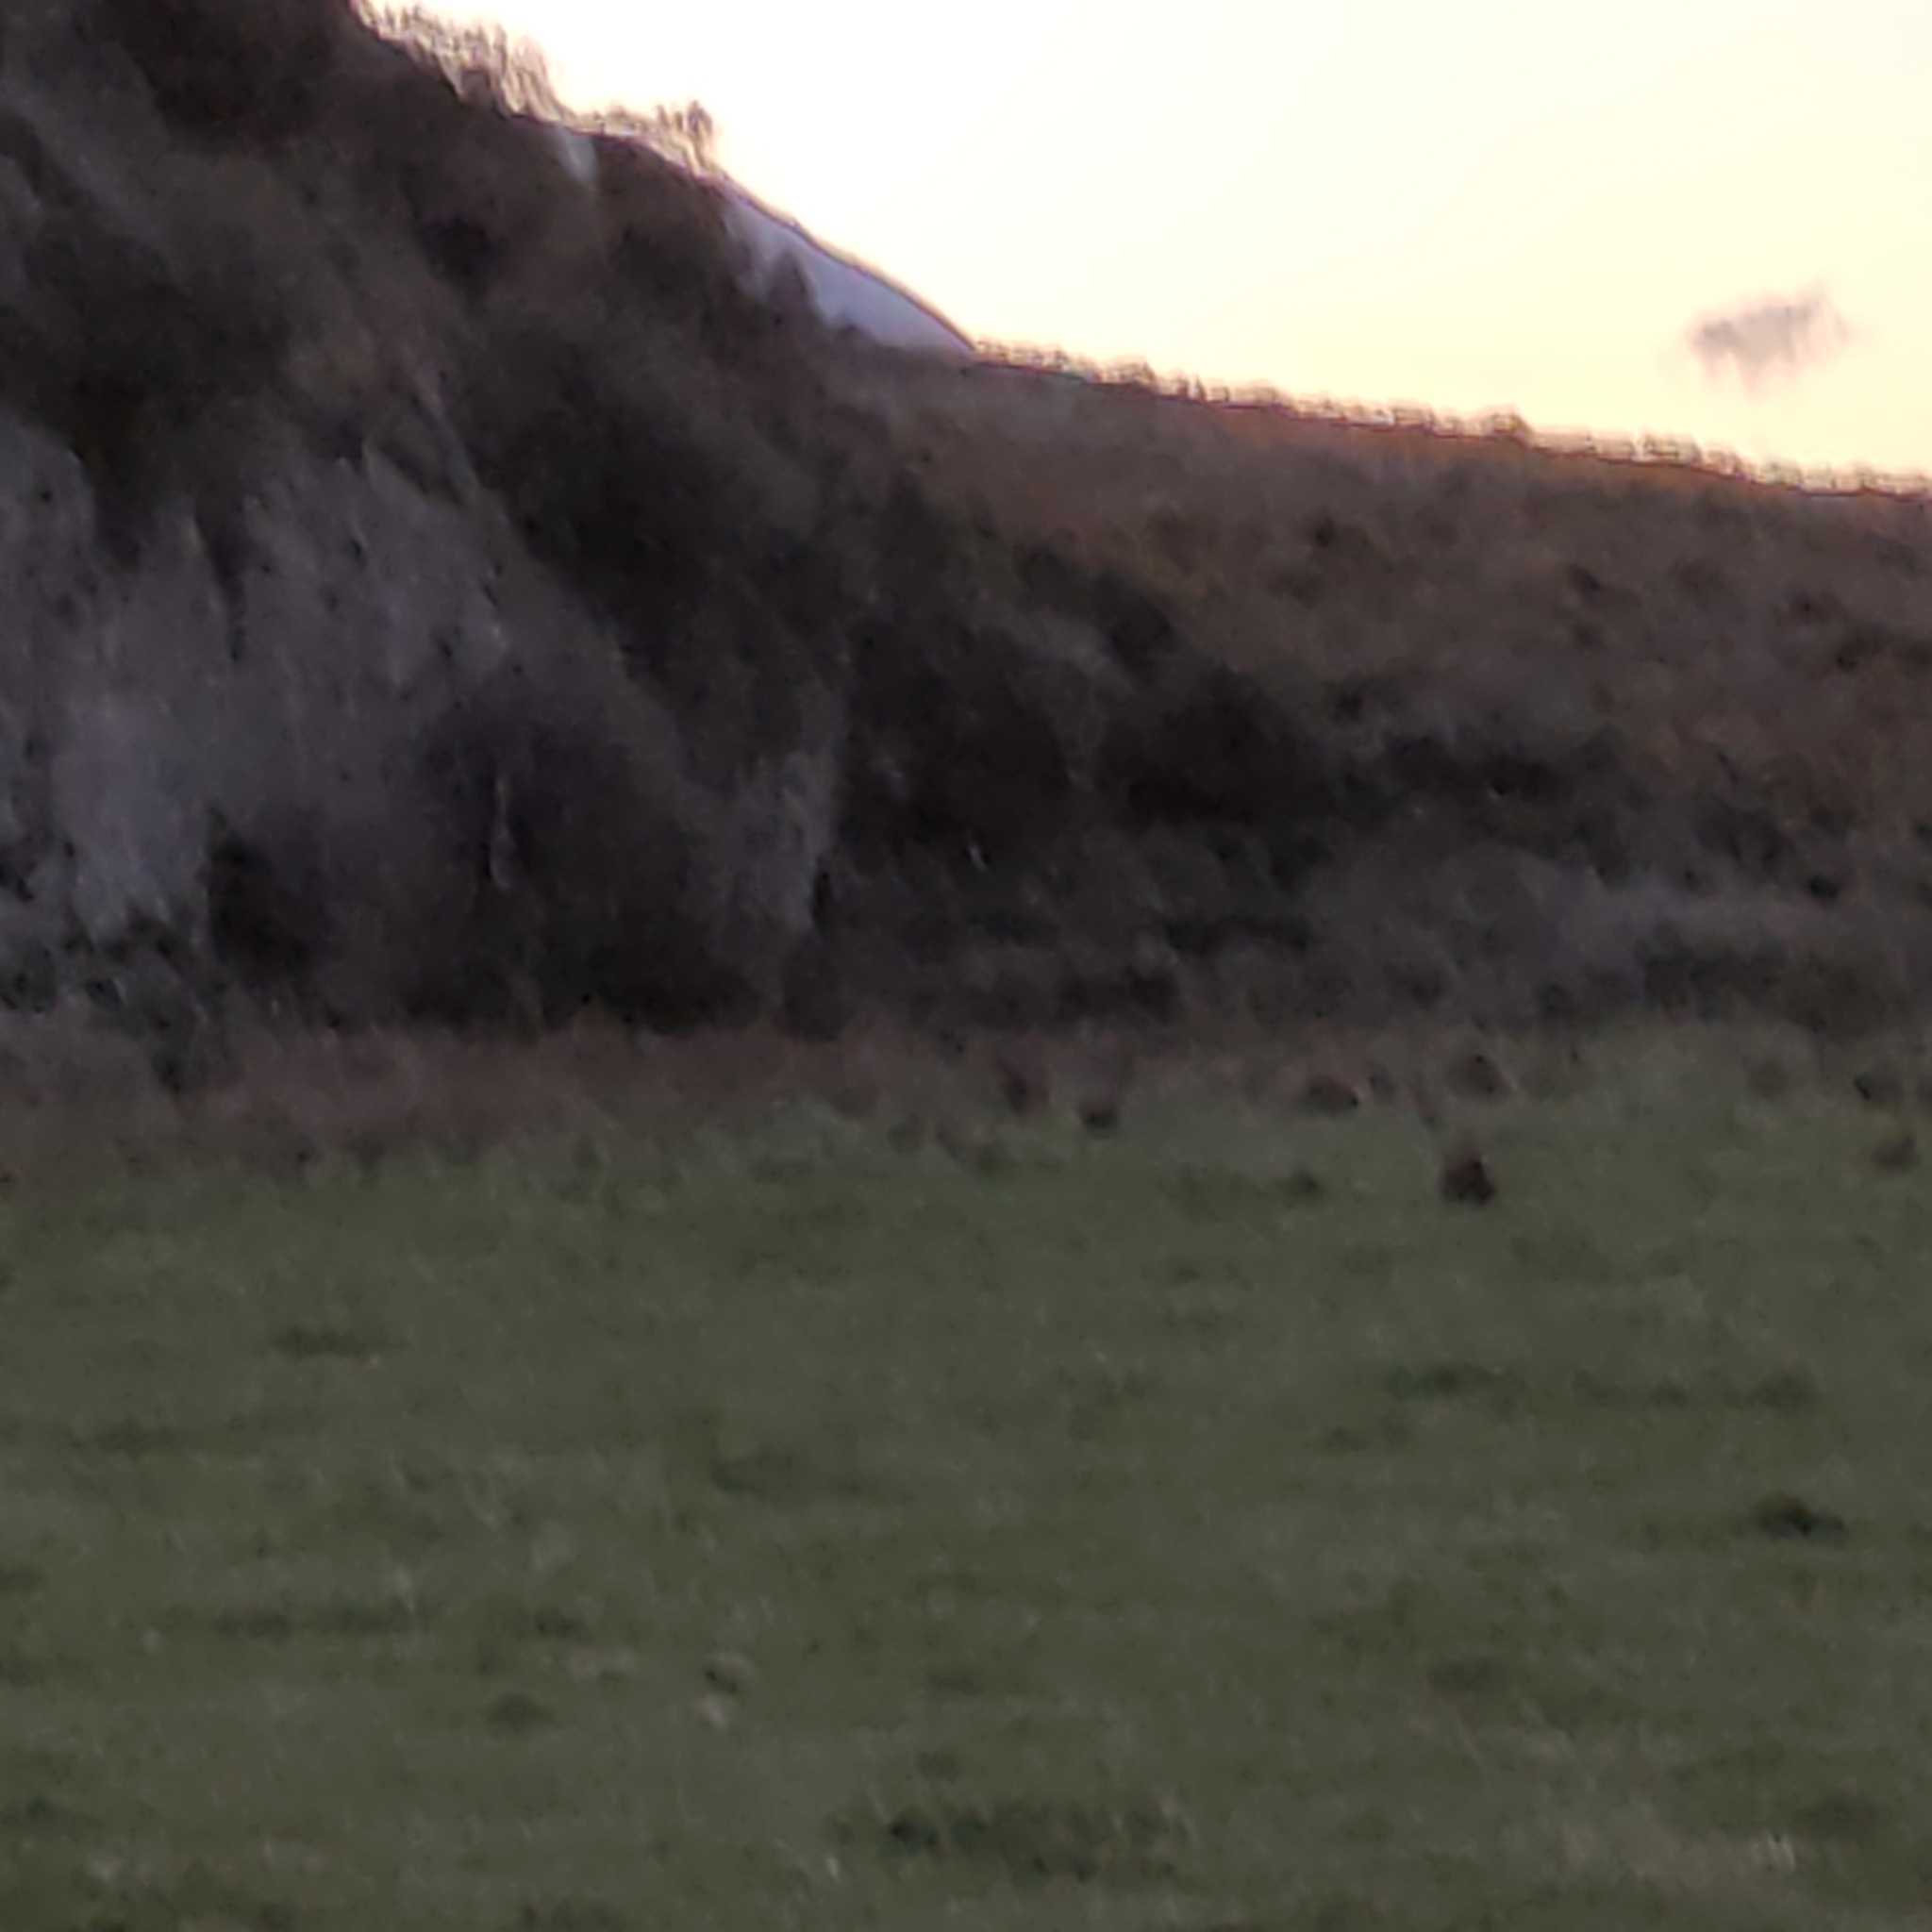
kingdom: Animalia
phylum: Chordata
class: Mammalia
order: Lagomorpha
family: Leporidae
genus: Lepus
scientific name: Lepus europaeus
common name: European hare
